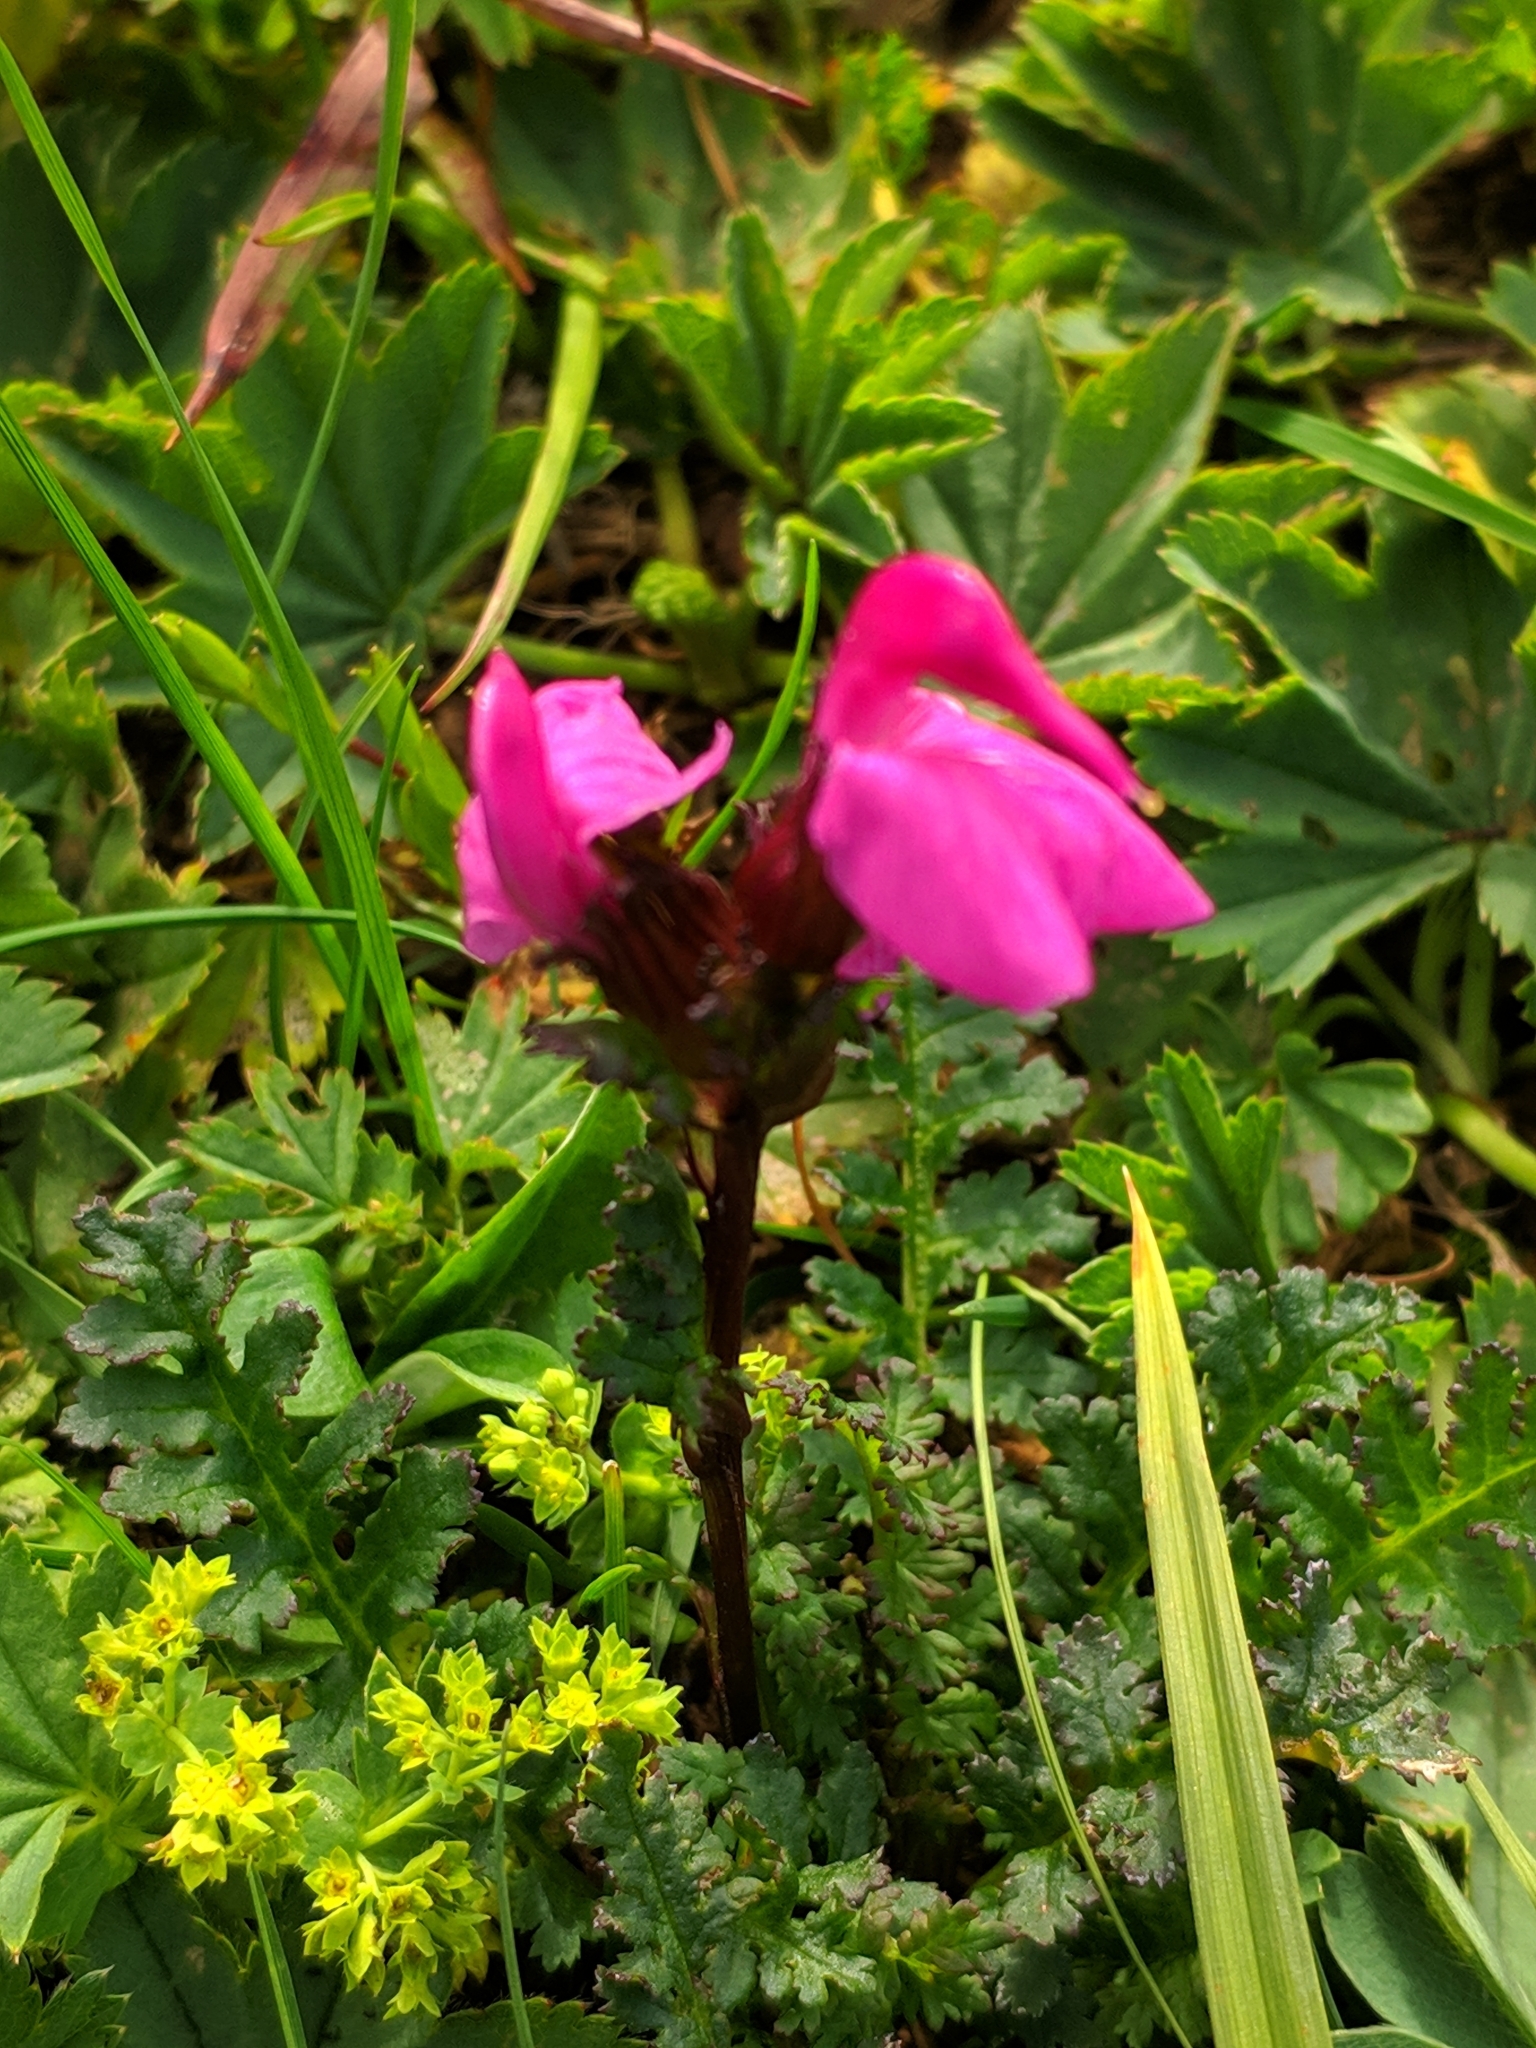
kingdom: Plantae
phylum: Tracheophyta
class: Magnoliopsida
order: Lamiales
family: Orobanchaceae
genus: Pedicularis
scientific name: Pedicularis nordmanniana
